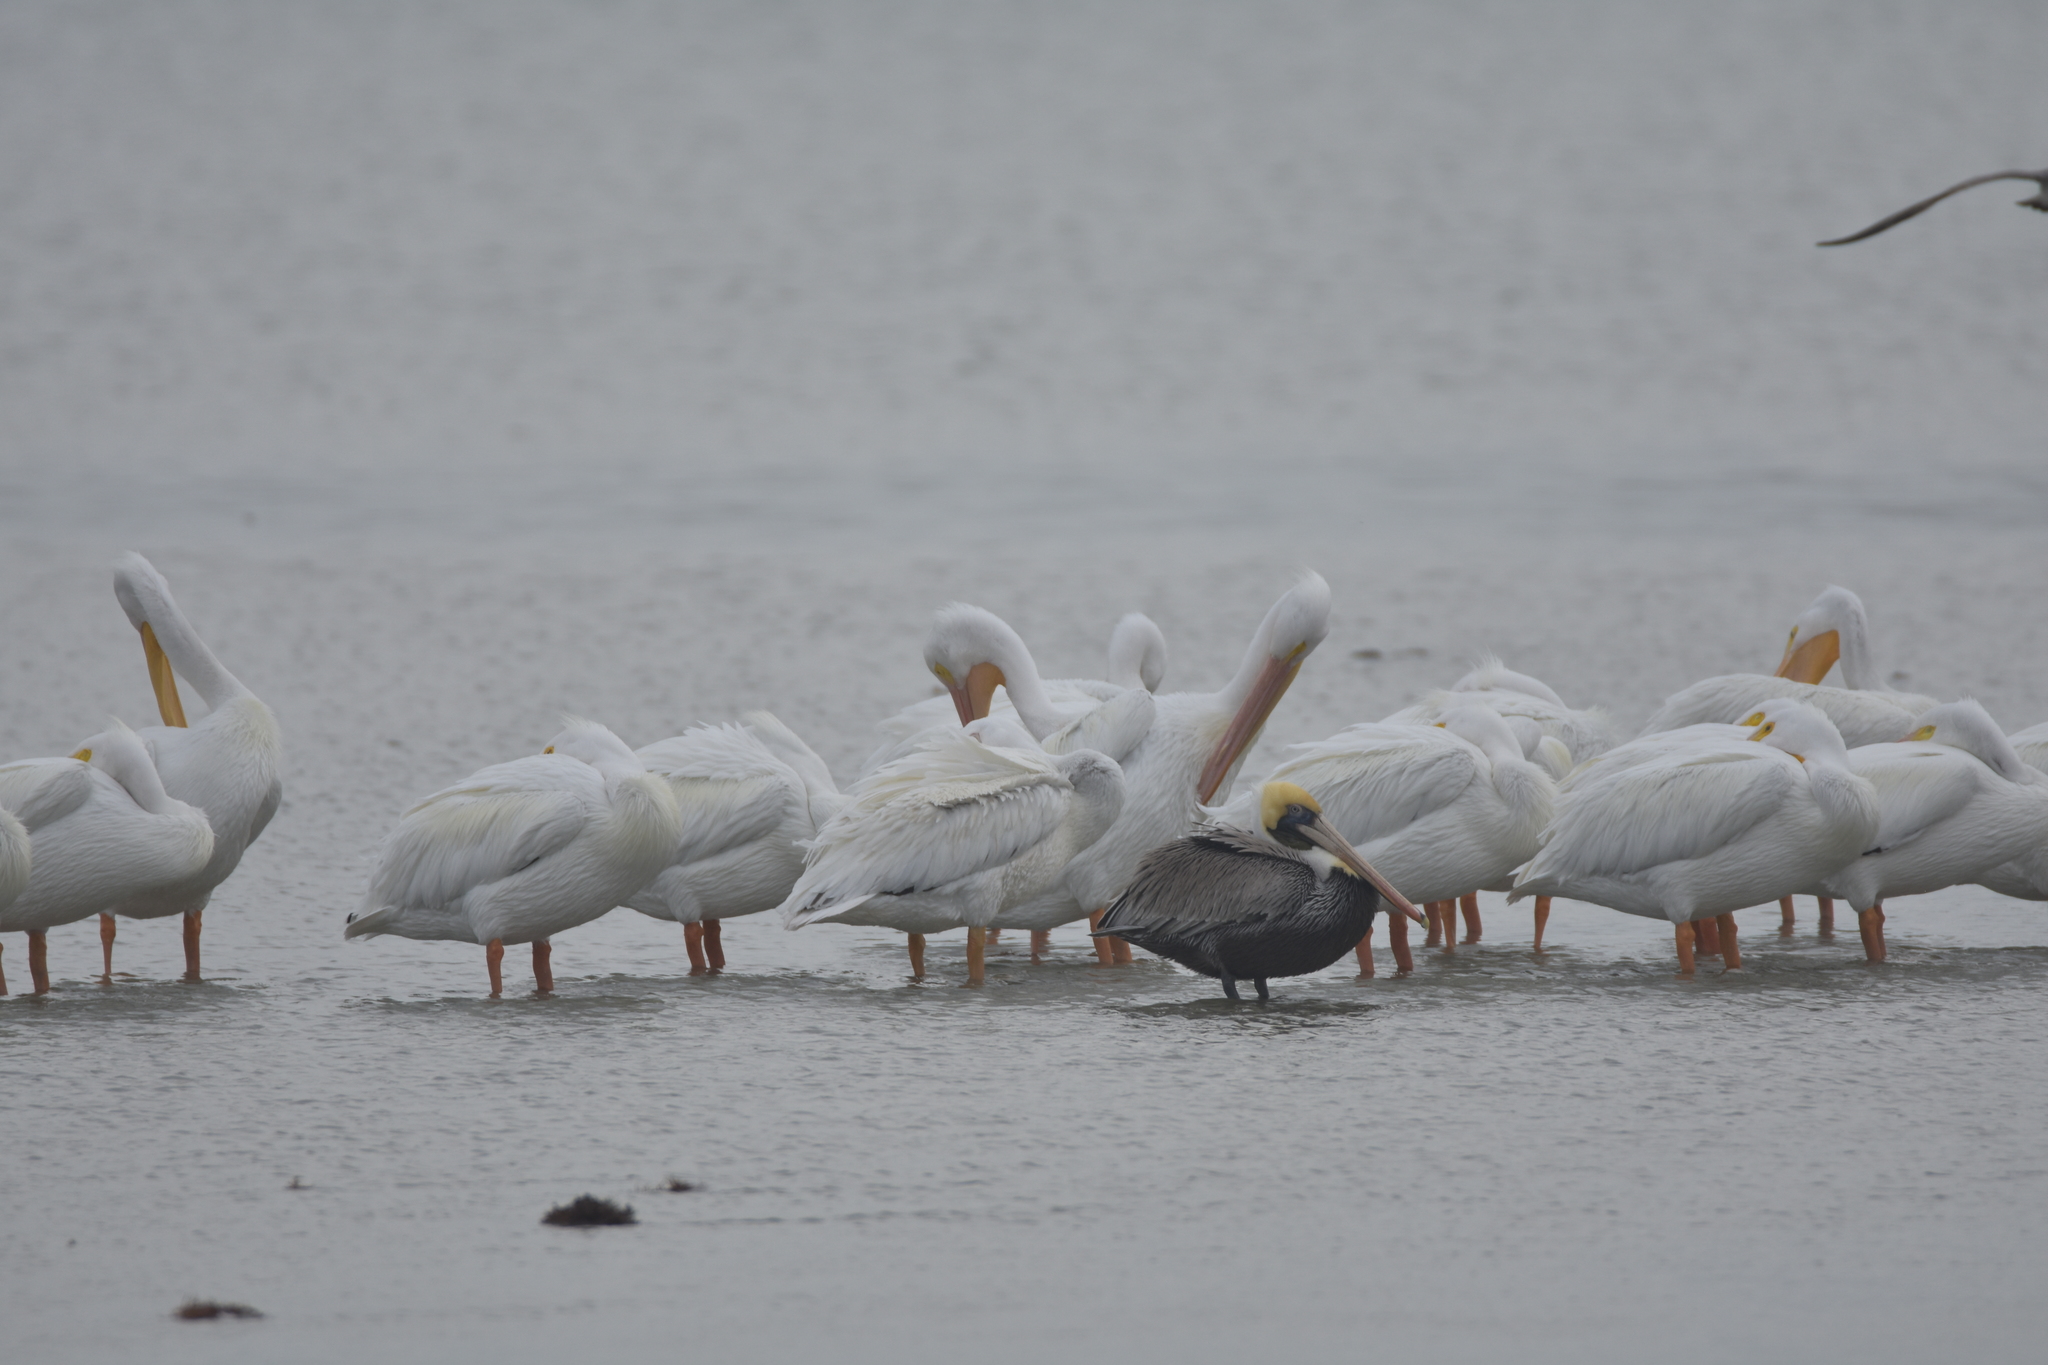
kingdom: Animalia
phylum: Chordata
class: Aves
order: Pelecaniformes
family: Pelecanidae
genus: Pelecanus
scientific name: Pelecanus occidentalis
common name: Brown pelican
